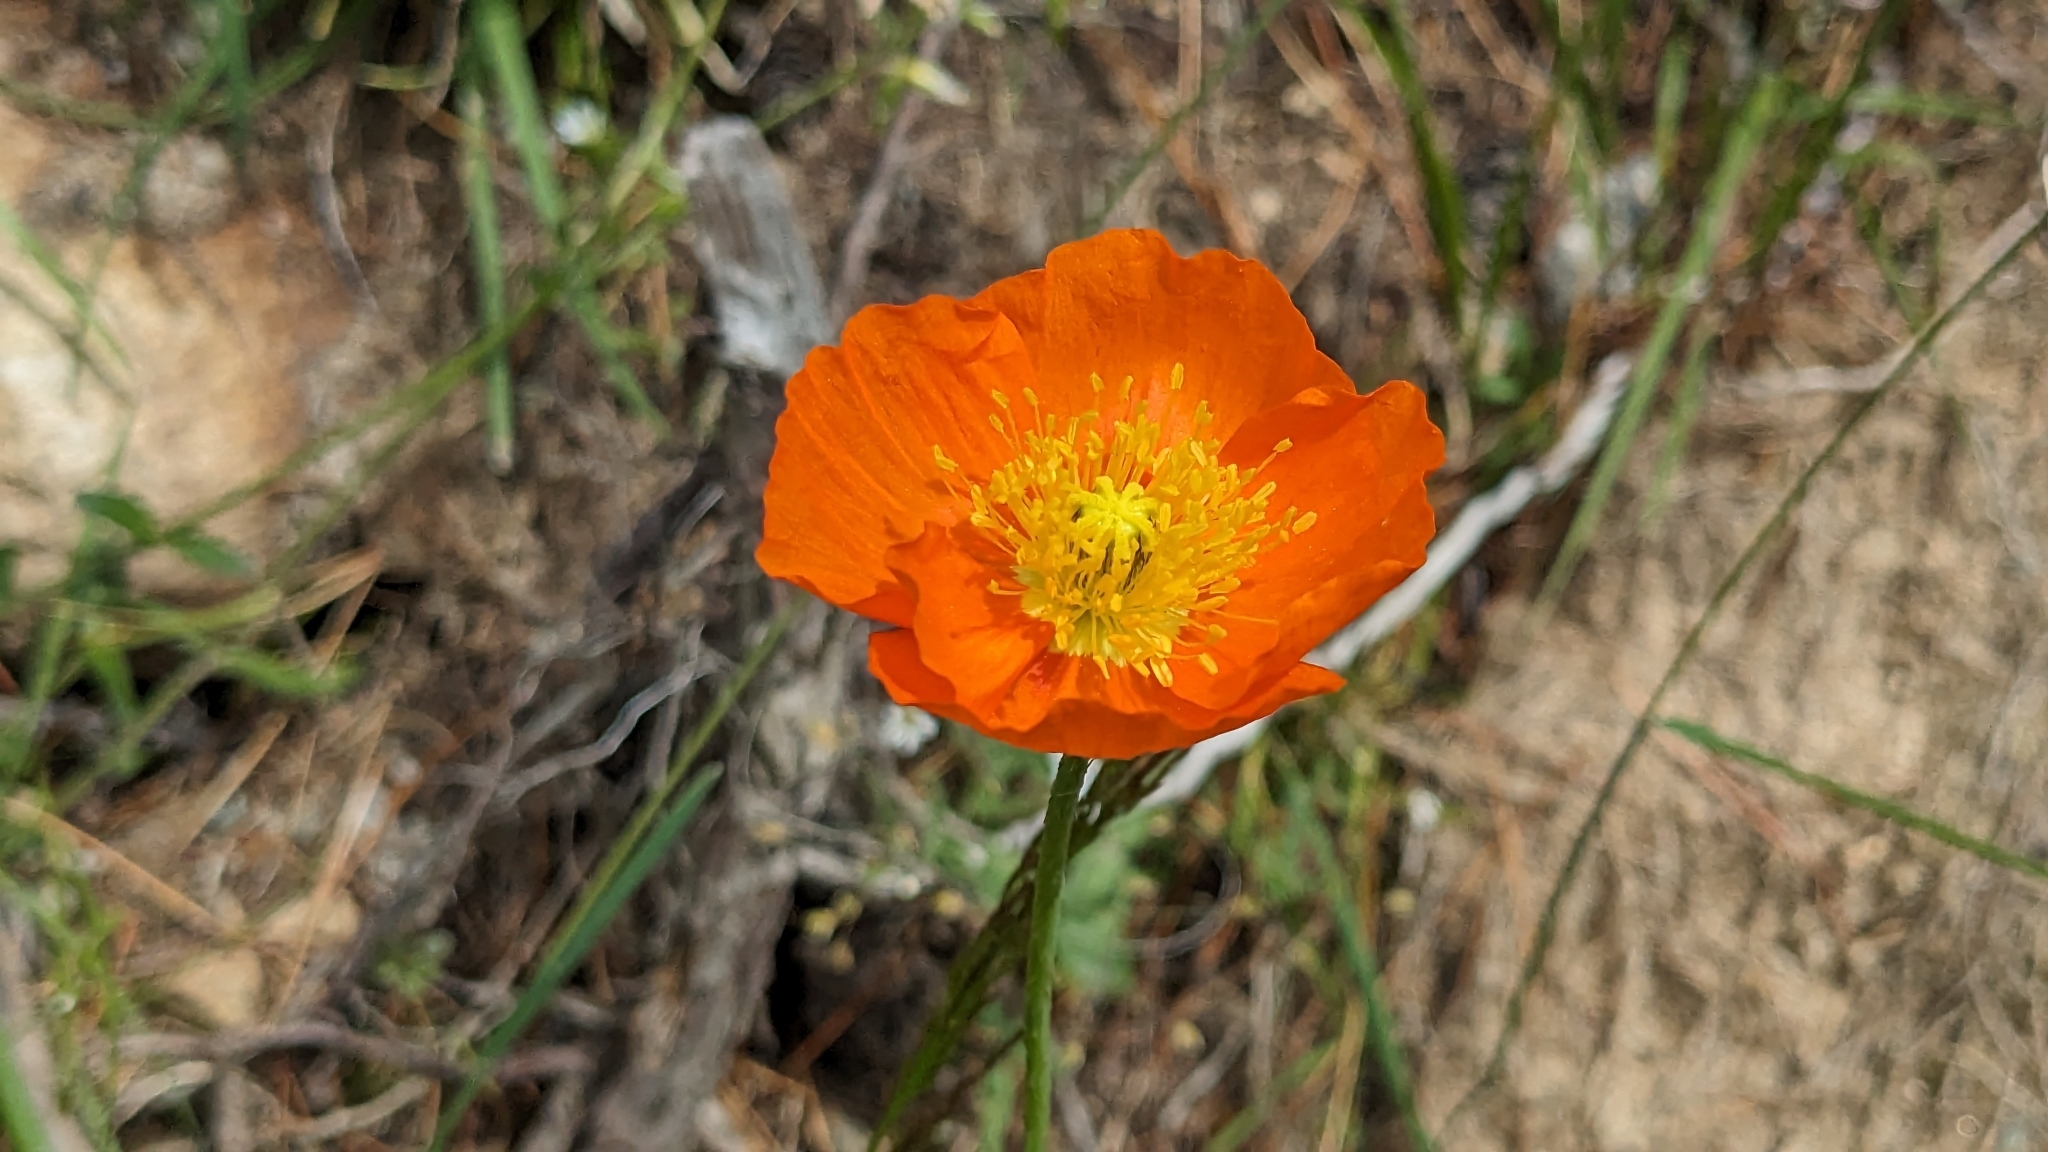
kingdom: Plantae
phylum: Tracheophyta
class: Magnoliopsida
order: Ranunculales
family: Papaveraceae
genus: Oreomecon
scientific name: Oreomecon
